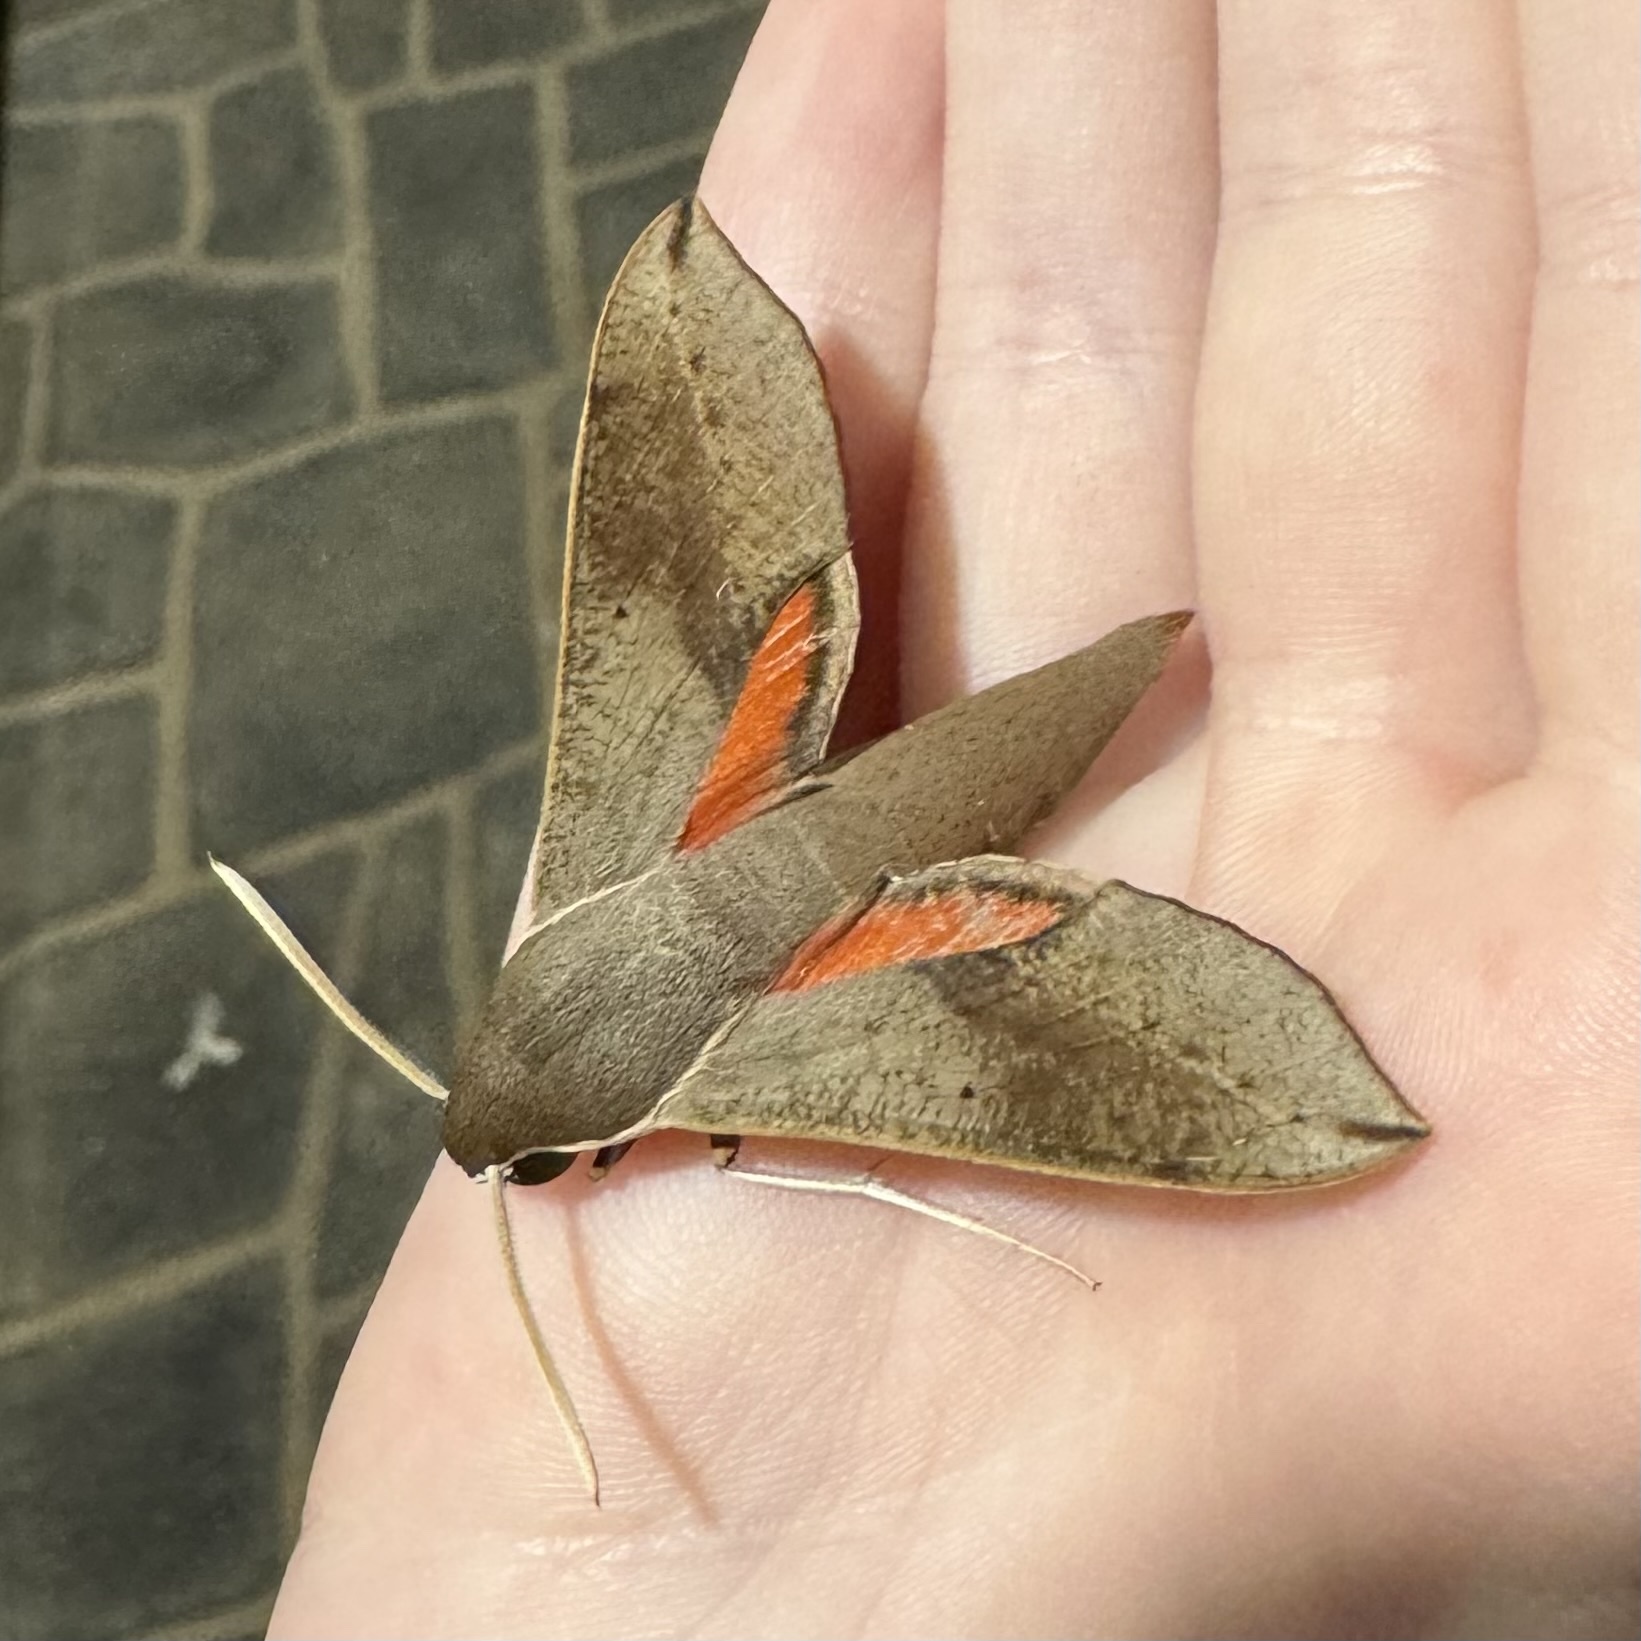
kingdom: Animalia
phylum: Arthropoda
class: Insecta
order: Lepidoptera
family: Sphingidae
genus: Hippotion
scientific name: Hippotion scrofa
